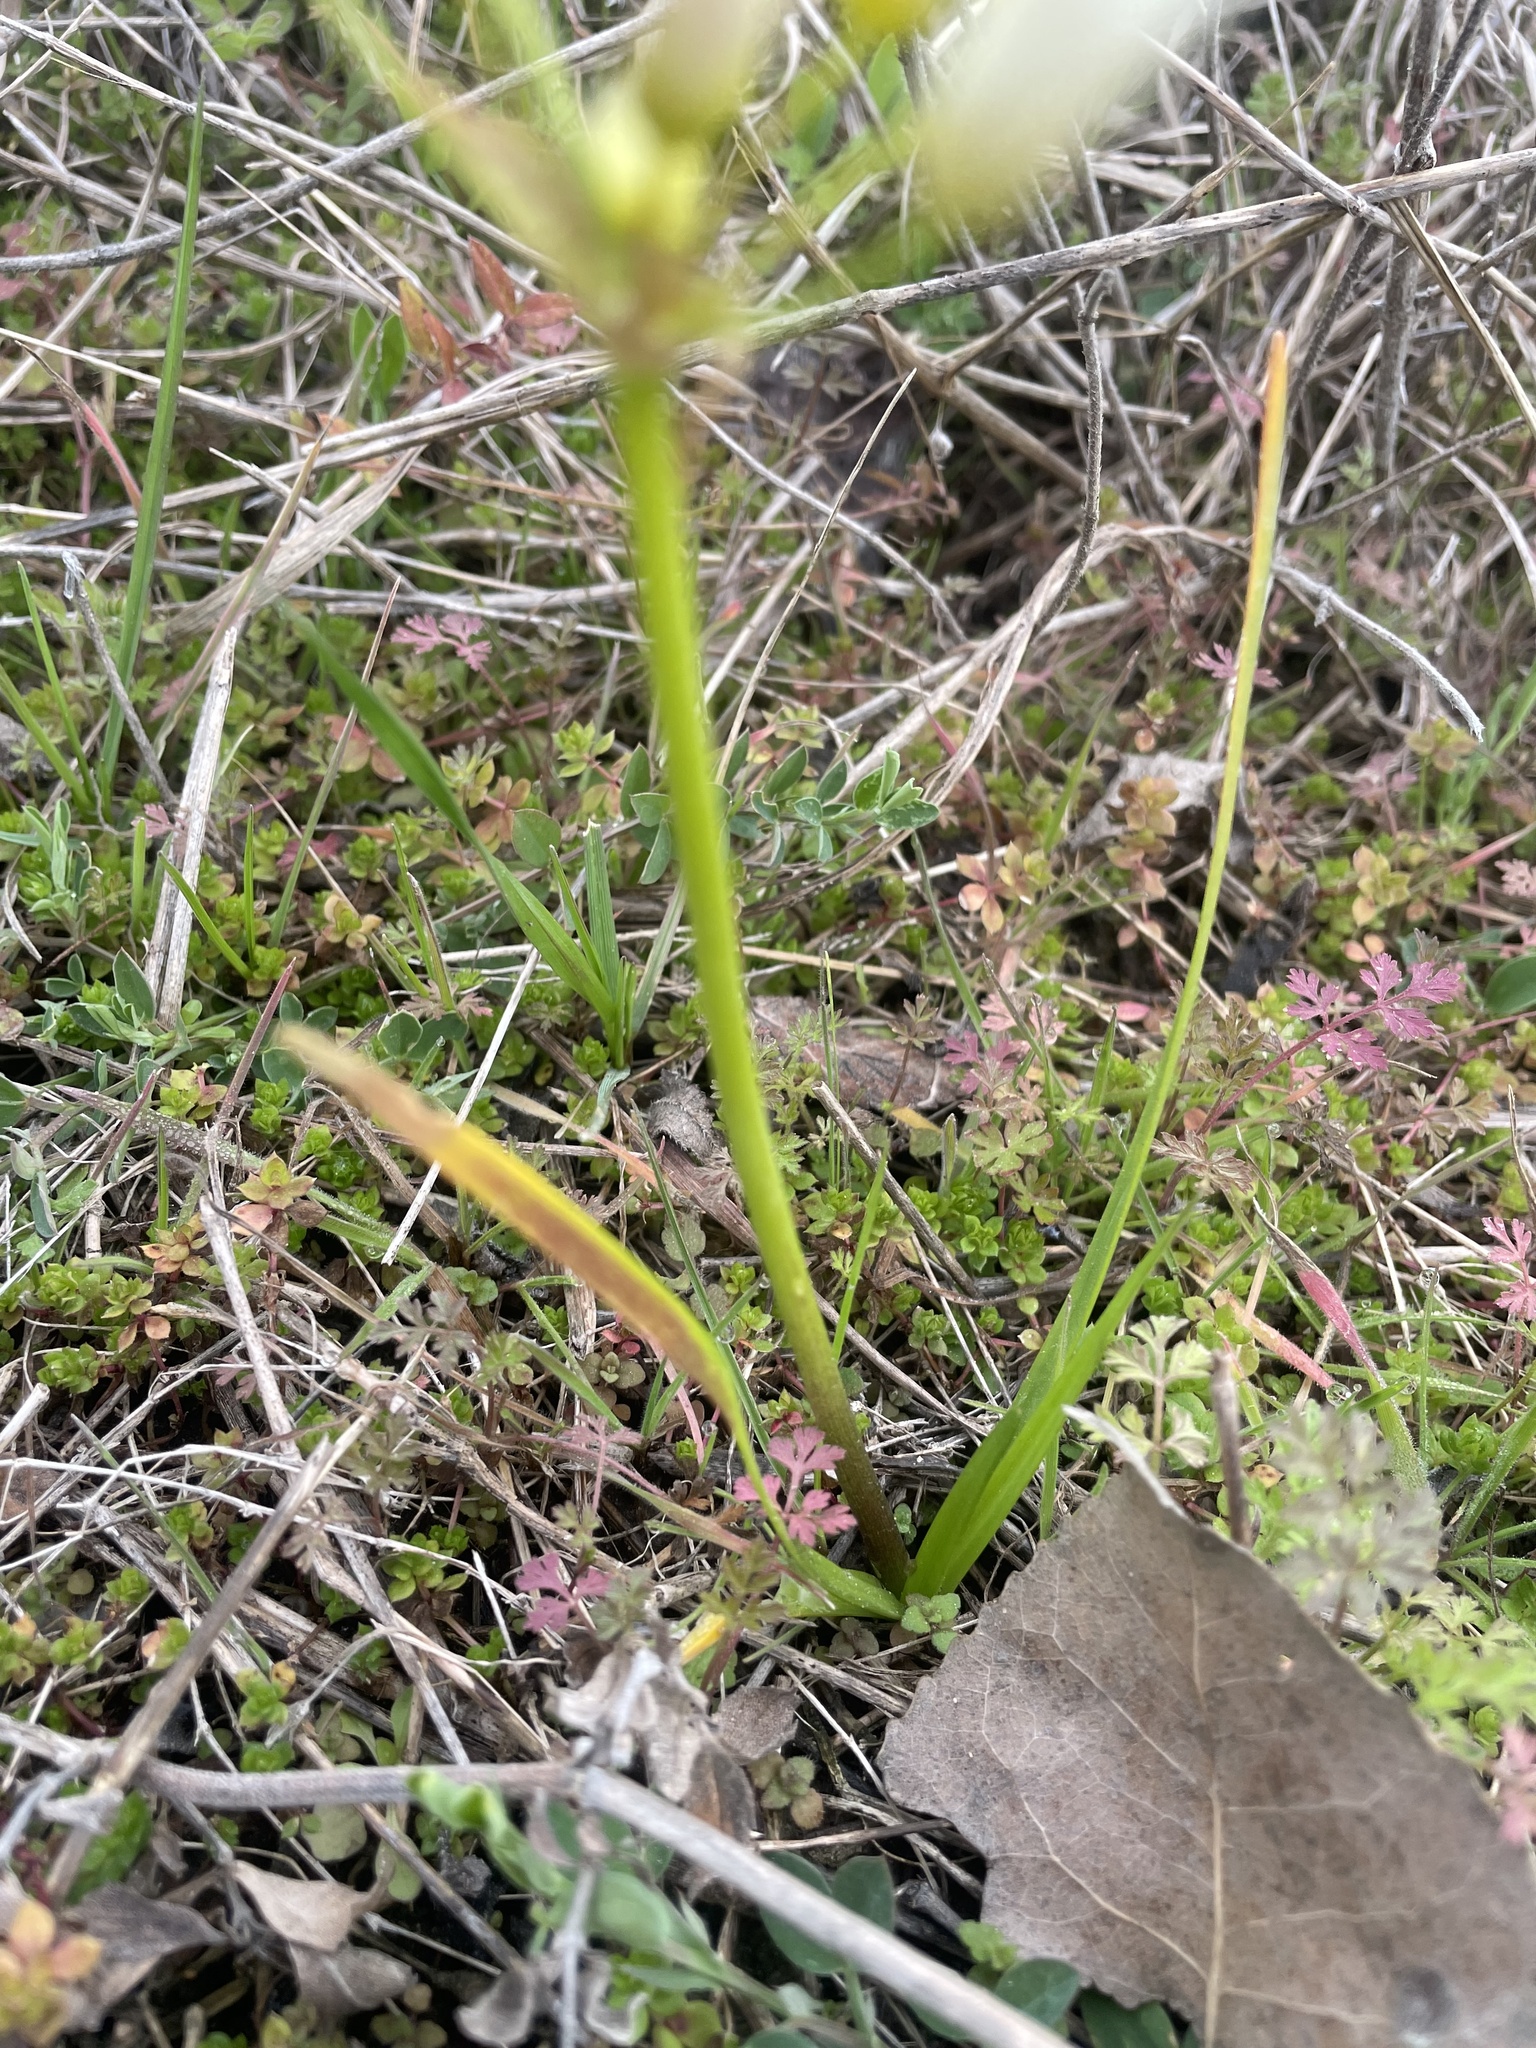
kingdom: Plantae
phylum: Tracheophyta
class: Liliopsida
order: Asparagales
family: Amaryllidaceae
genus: Nothoscordum
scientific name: Nothoscordum bivalve
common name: Crow-poison
